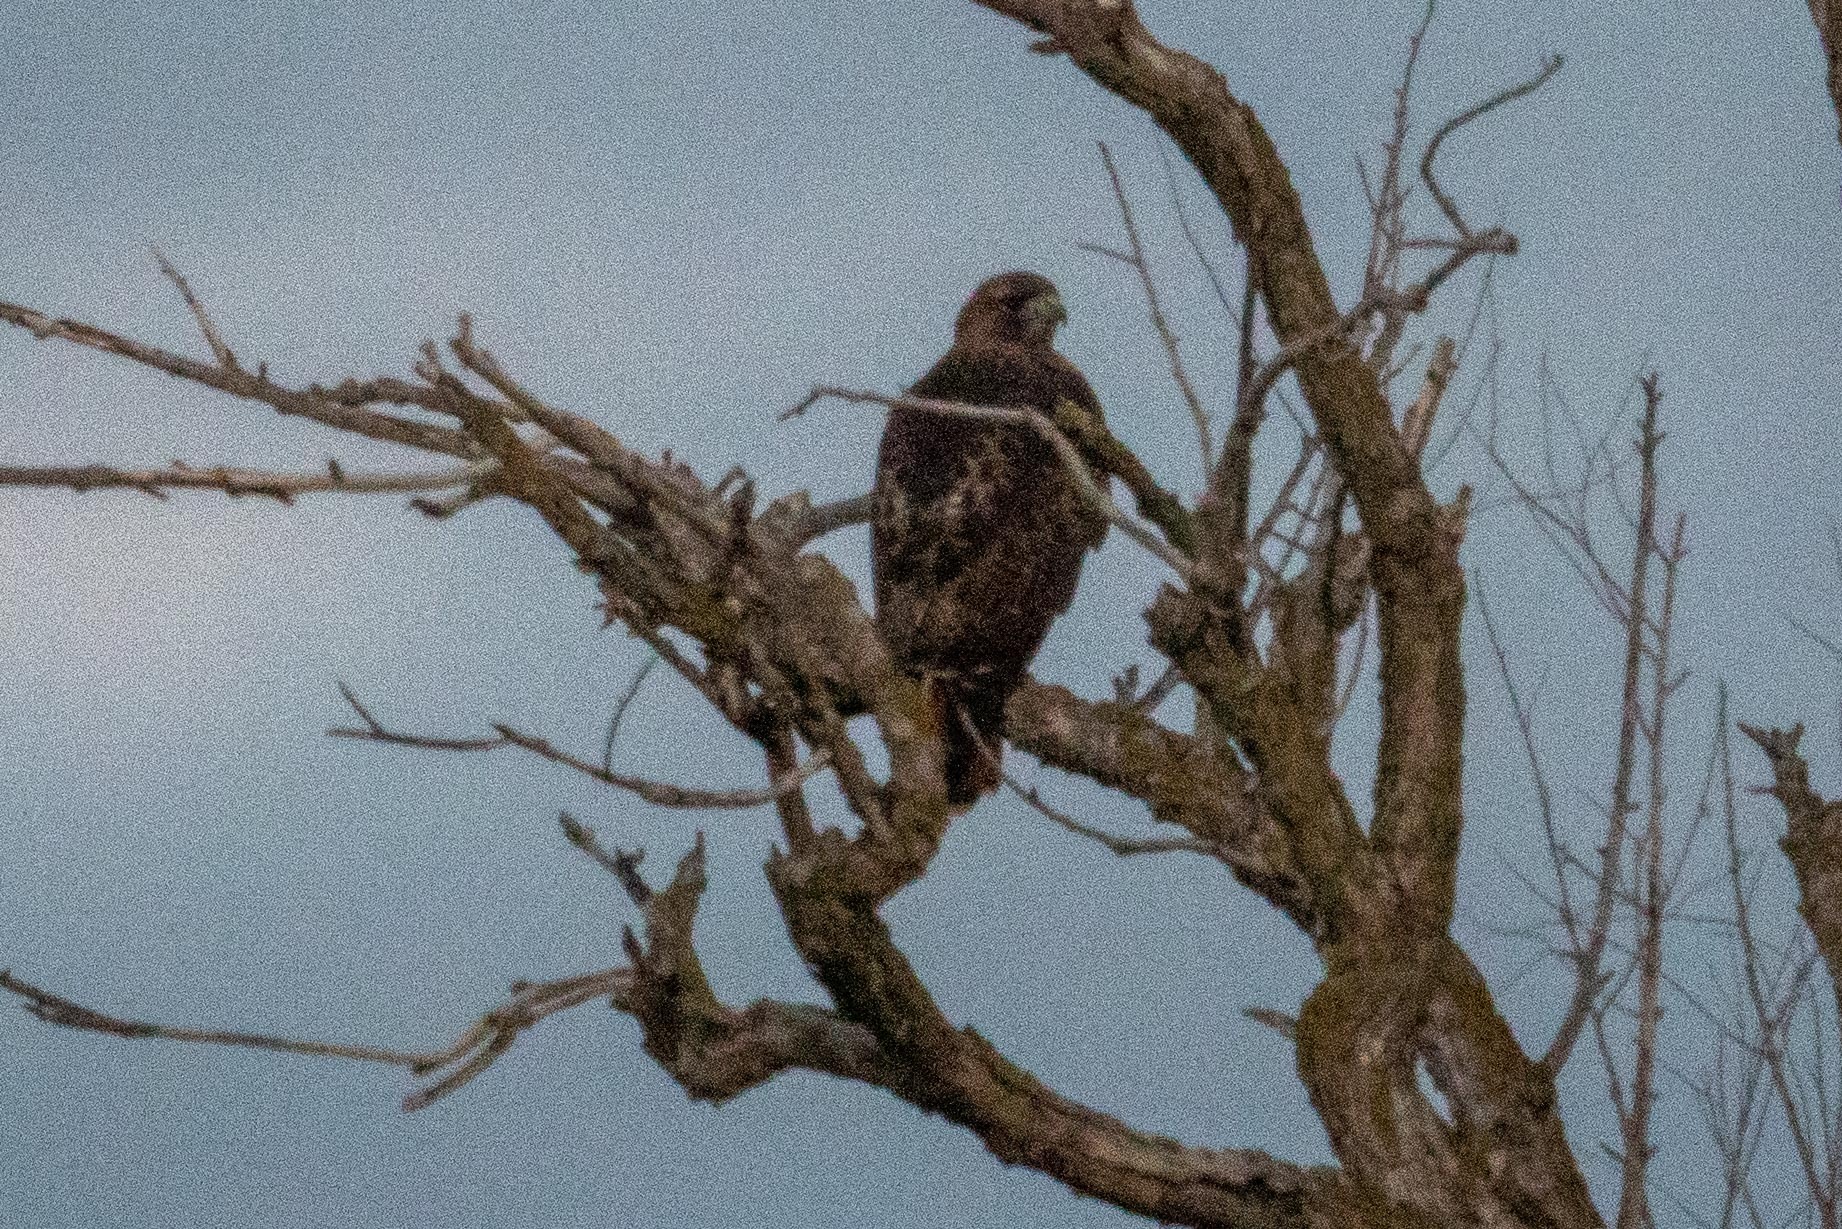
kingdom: Animalia
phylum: Chordata
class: Aves
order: Accipitriformes
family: Accipitridae
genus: Buteo
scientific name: Buteo jamaicensis
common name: Red-tailed hawk
